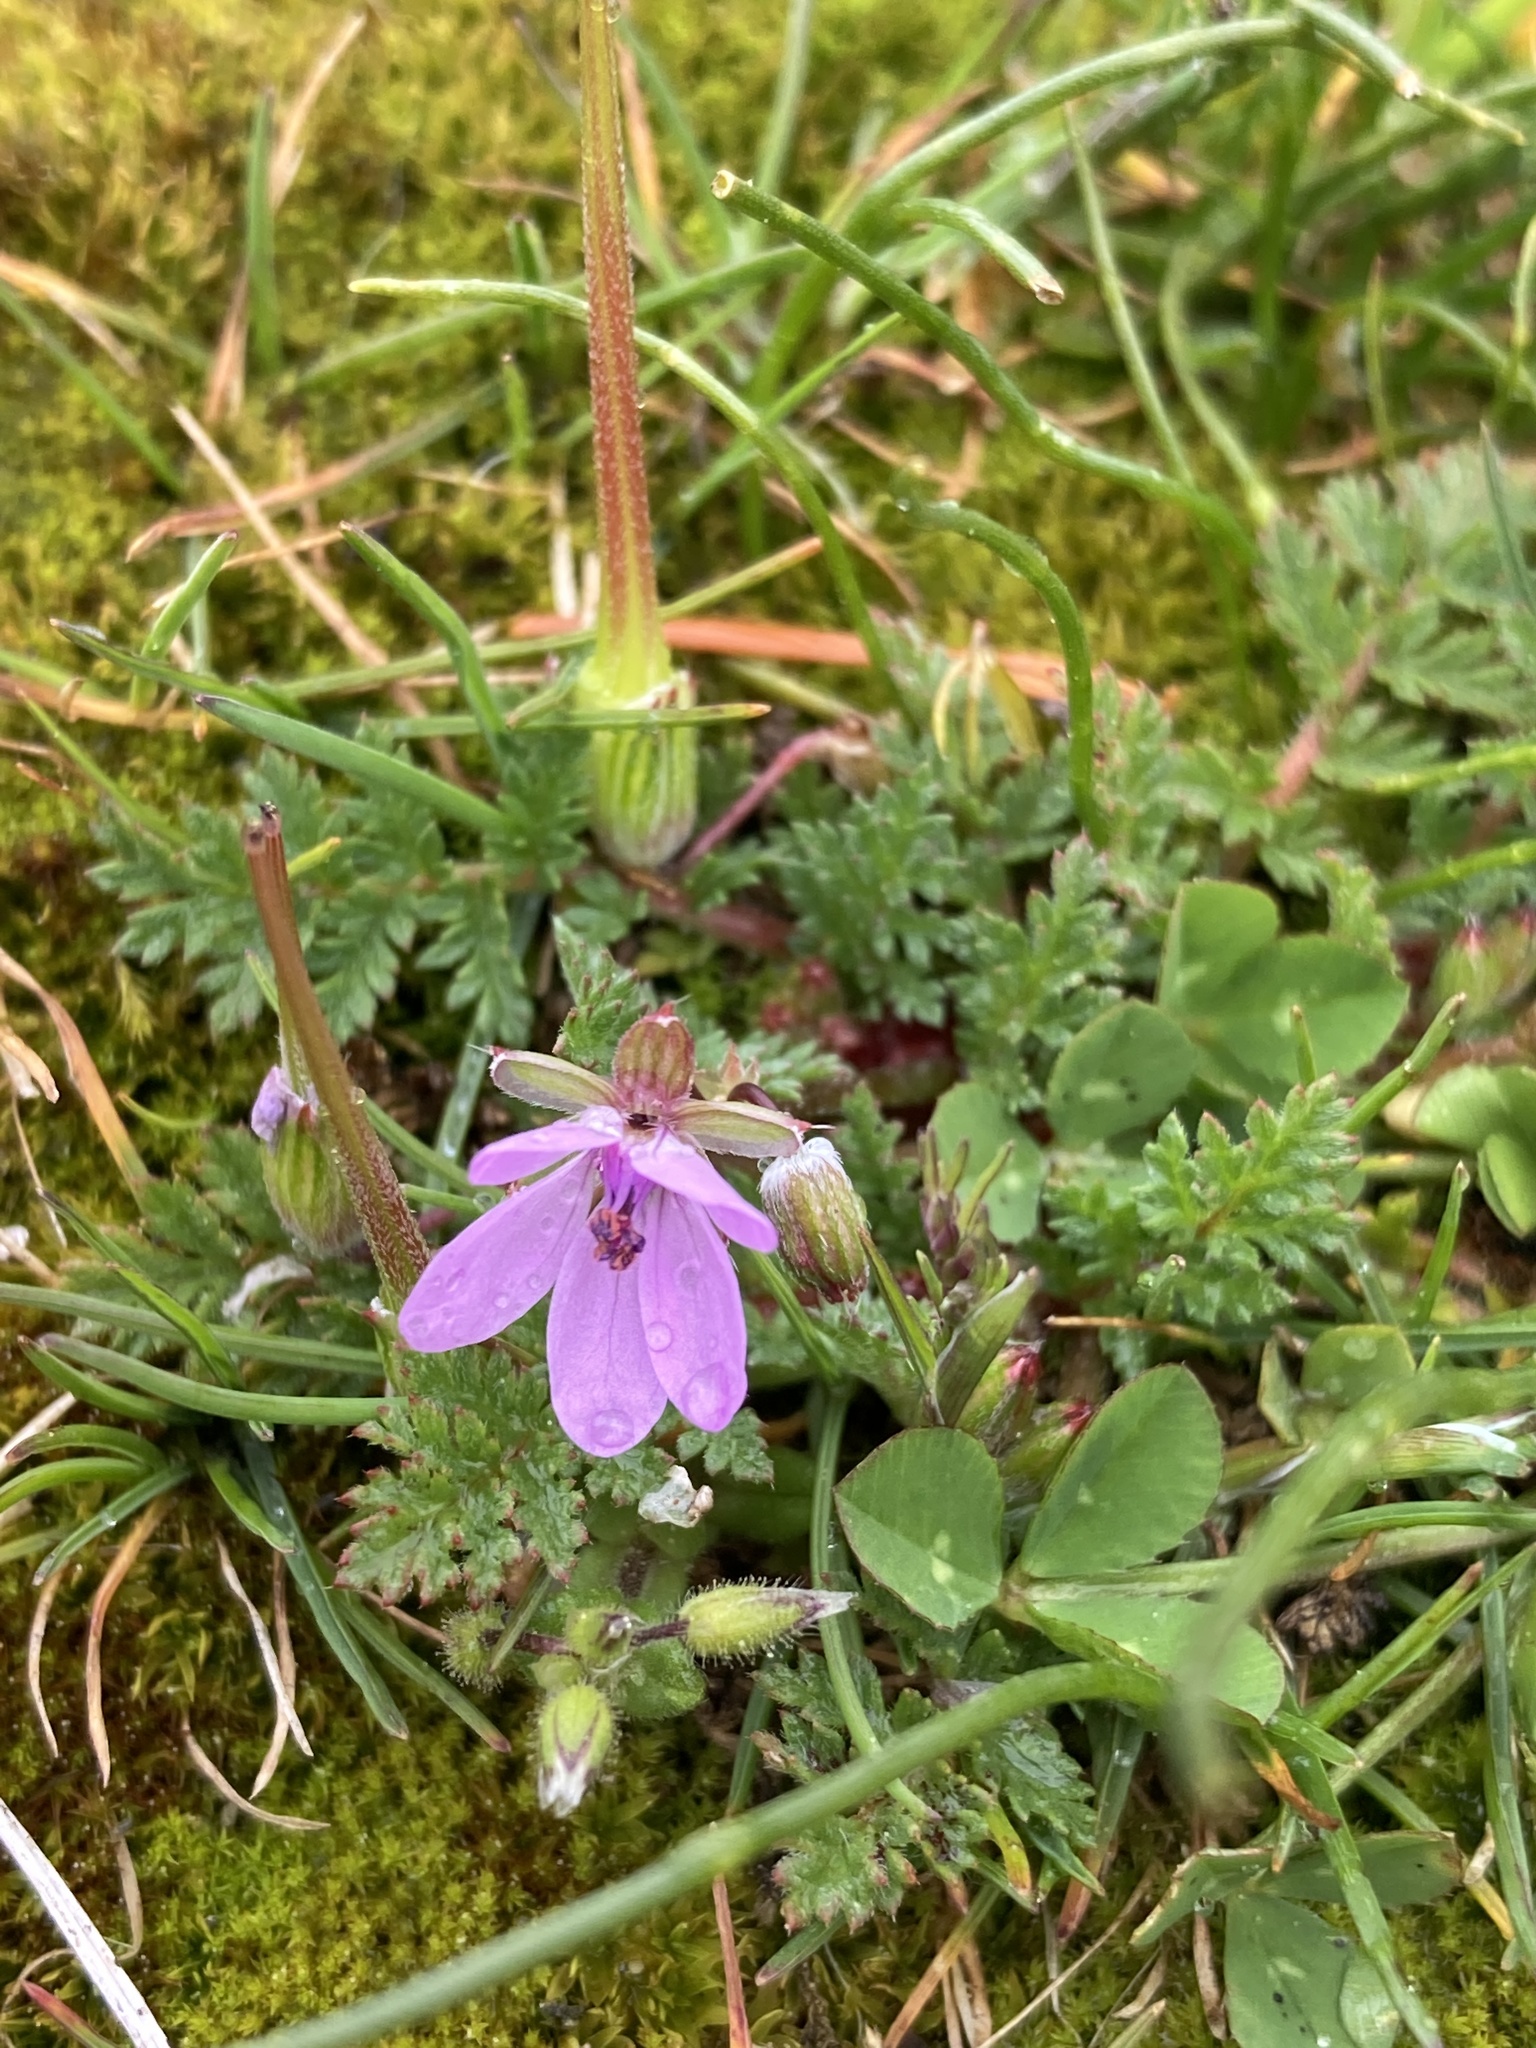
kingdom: Plantae
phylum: Tracheophyta
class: Magnoliopsida
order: Geraniales
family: Geraniaceae
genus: Erodium
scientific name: Erodium cicutarium
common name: Common stork's-bill
